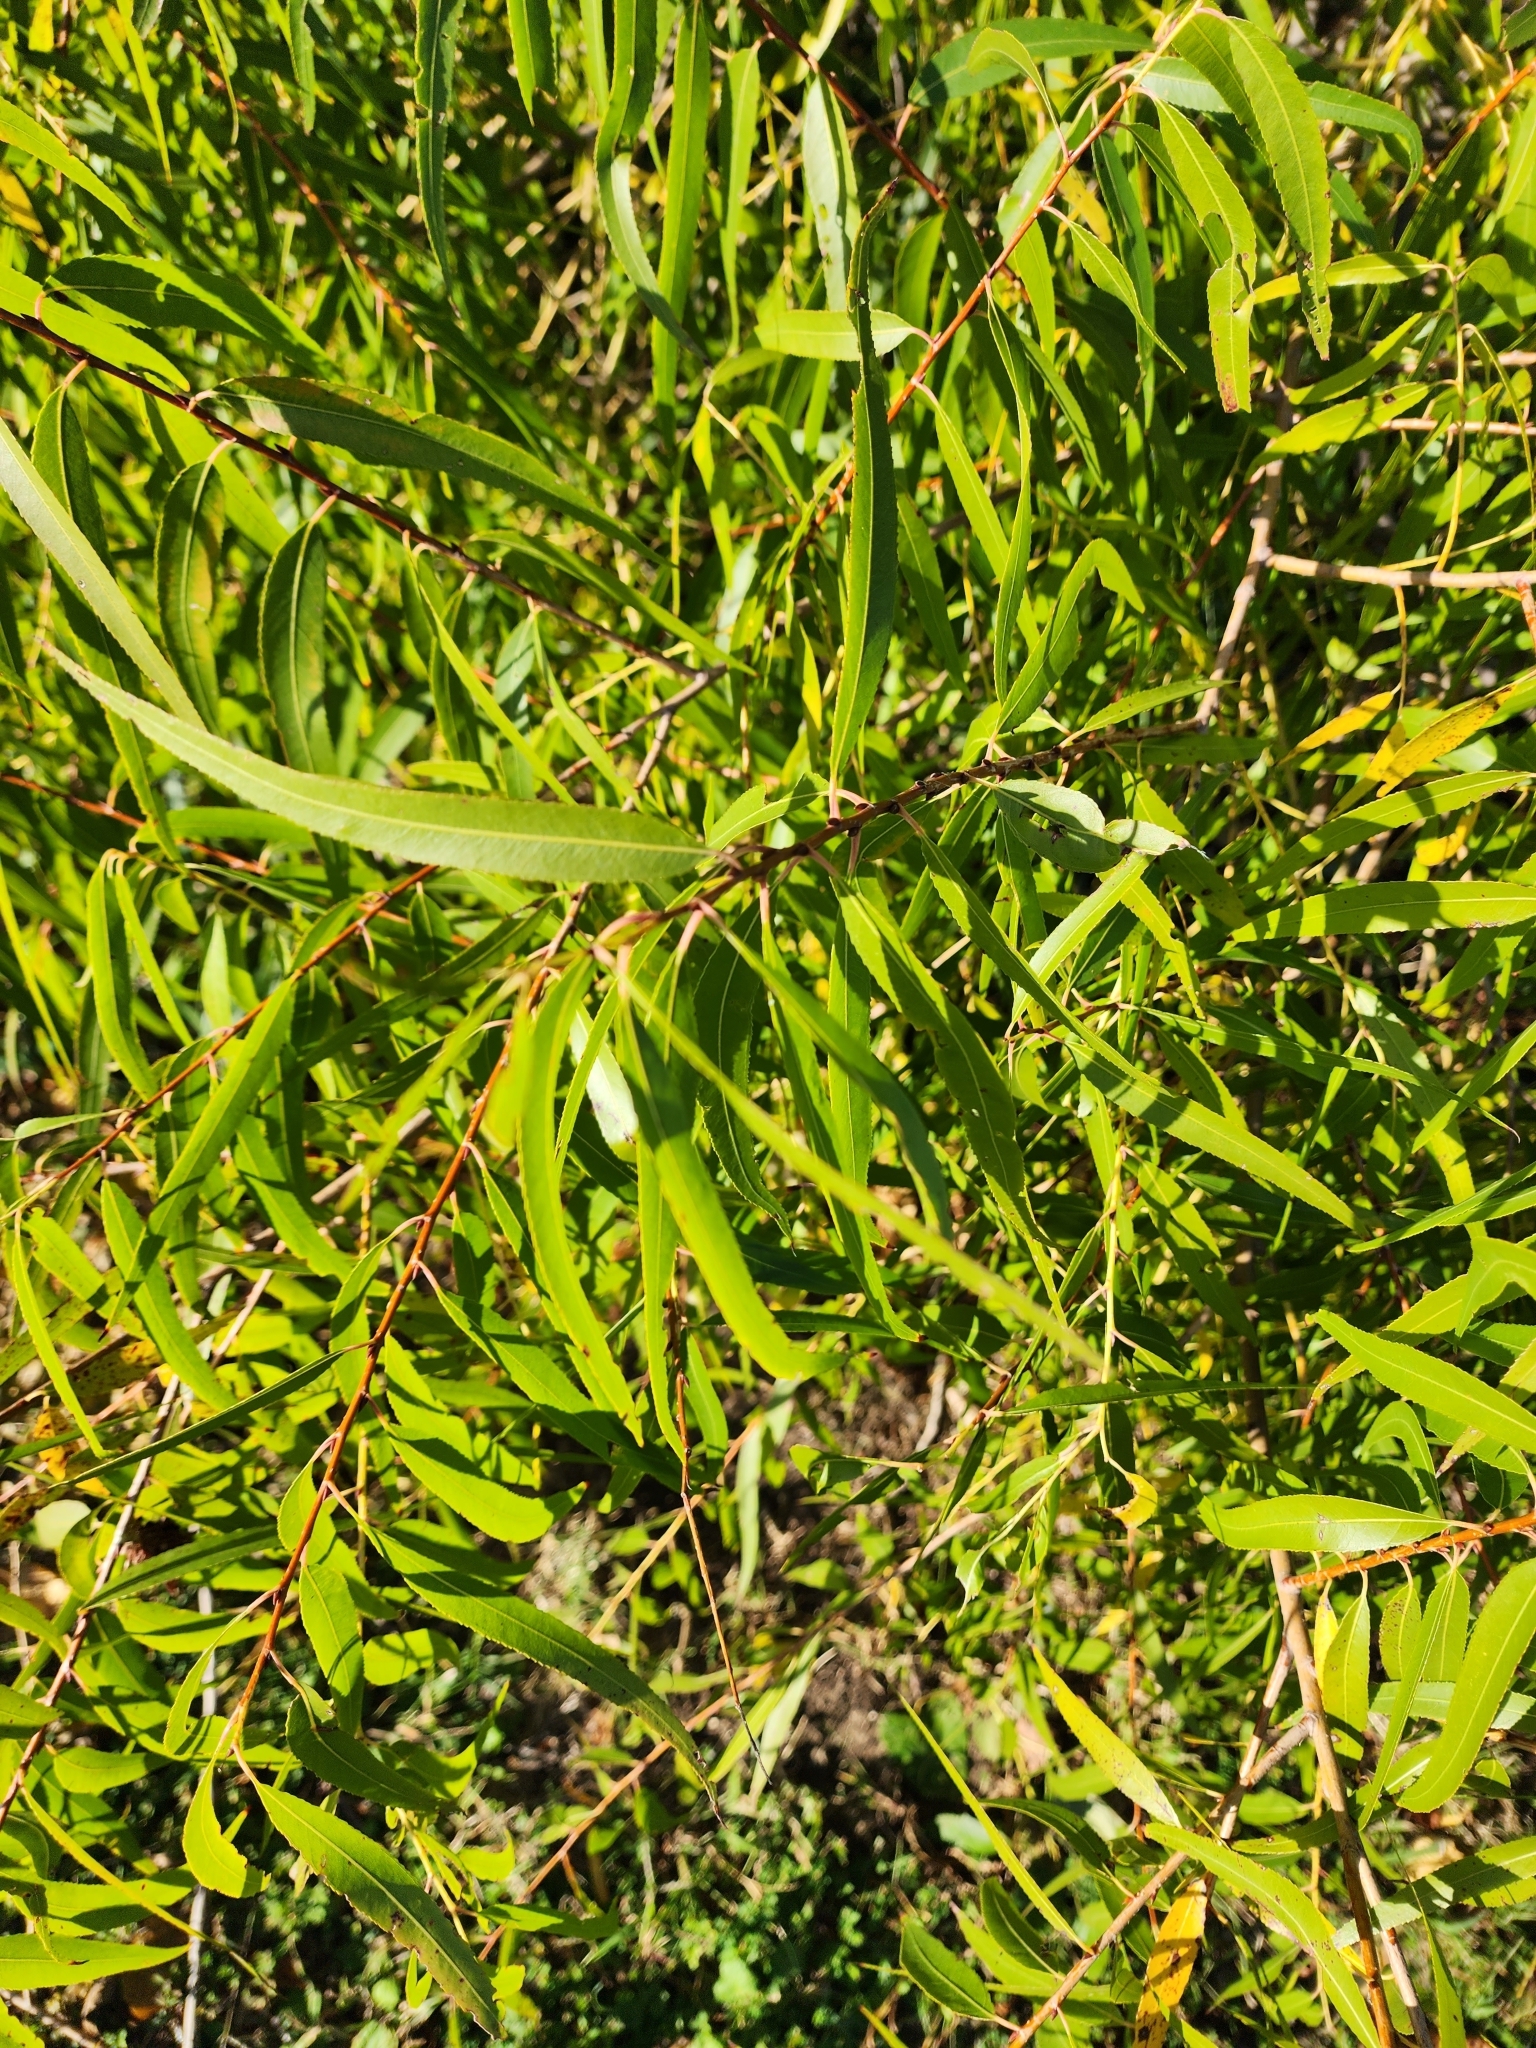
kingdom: Plantae
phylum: Tracheophyta
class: Magnoliopsida
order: Malpighiales
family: Salicaceae
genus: Salix
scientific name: Salix nigra
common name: Black willow
